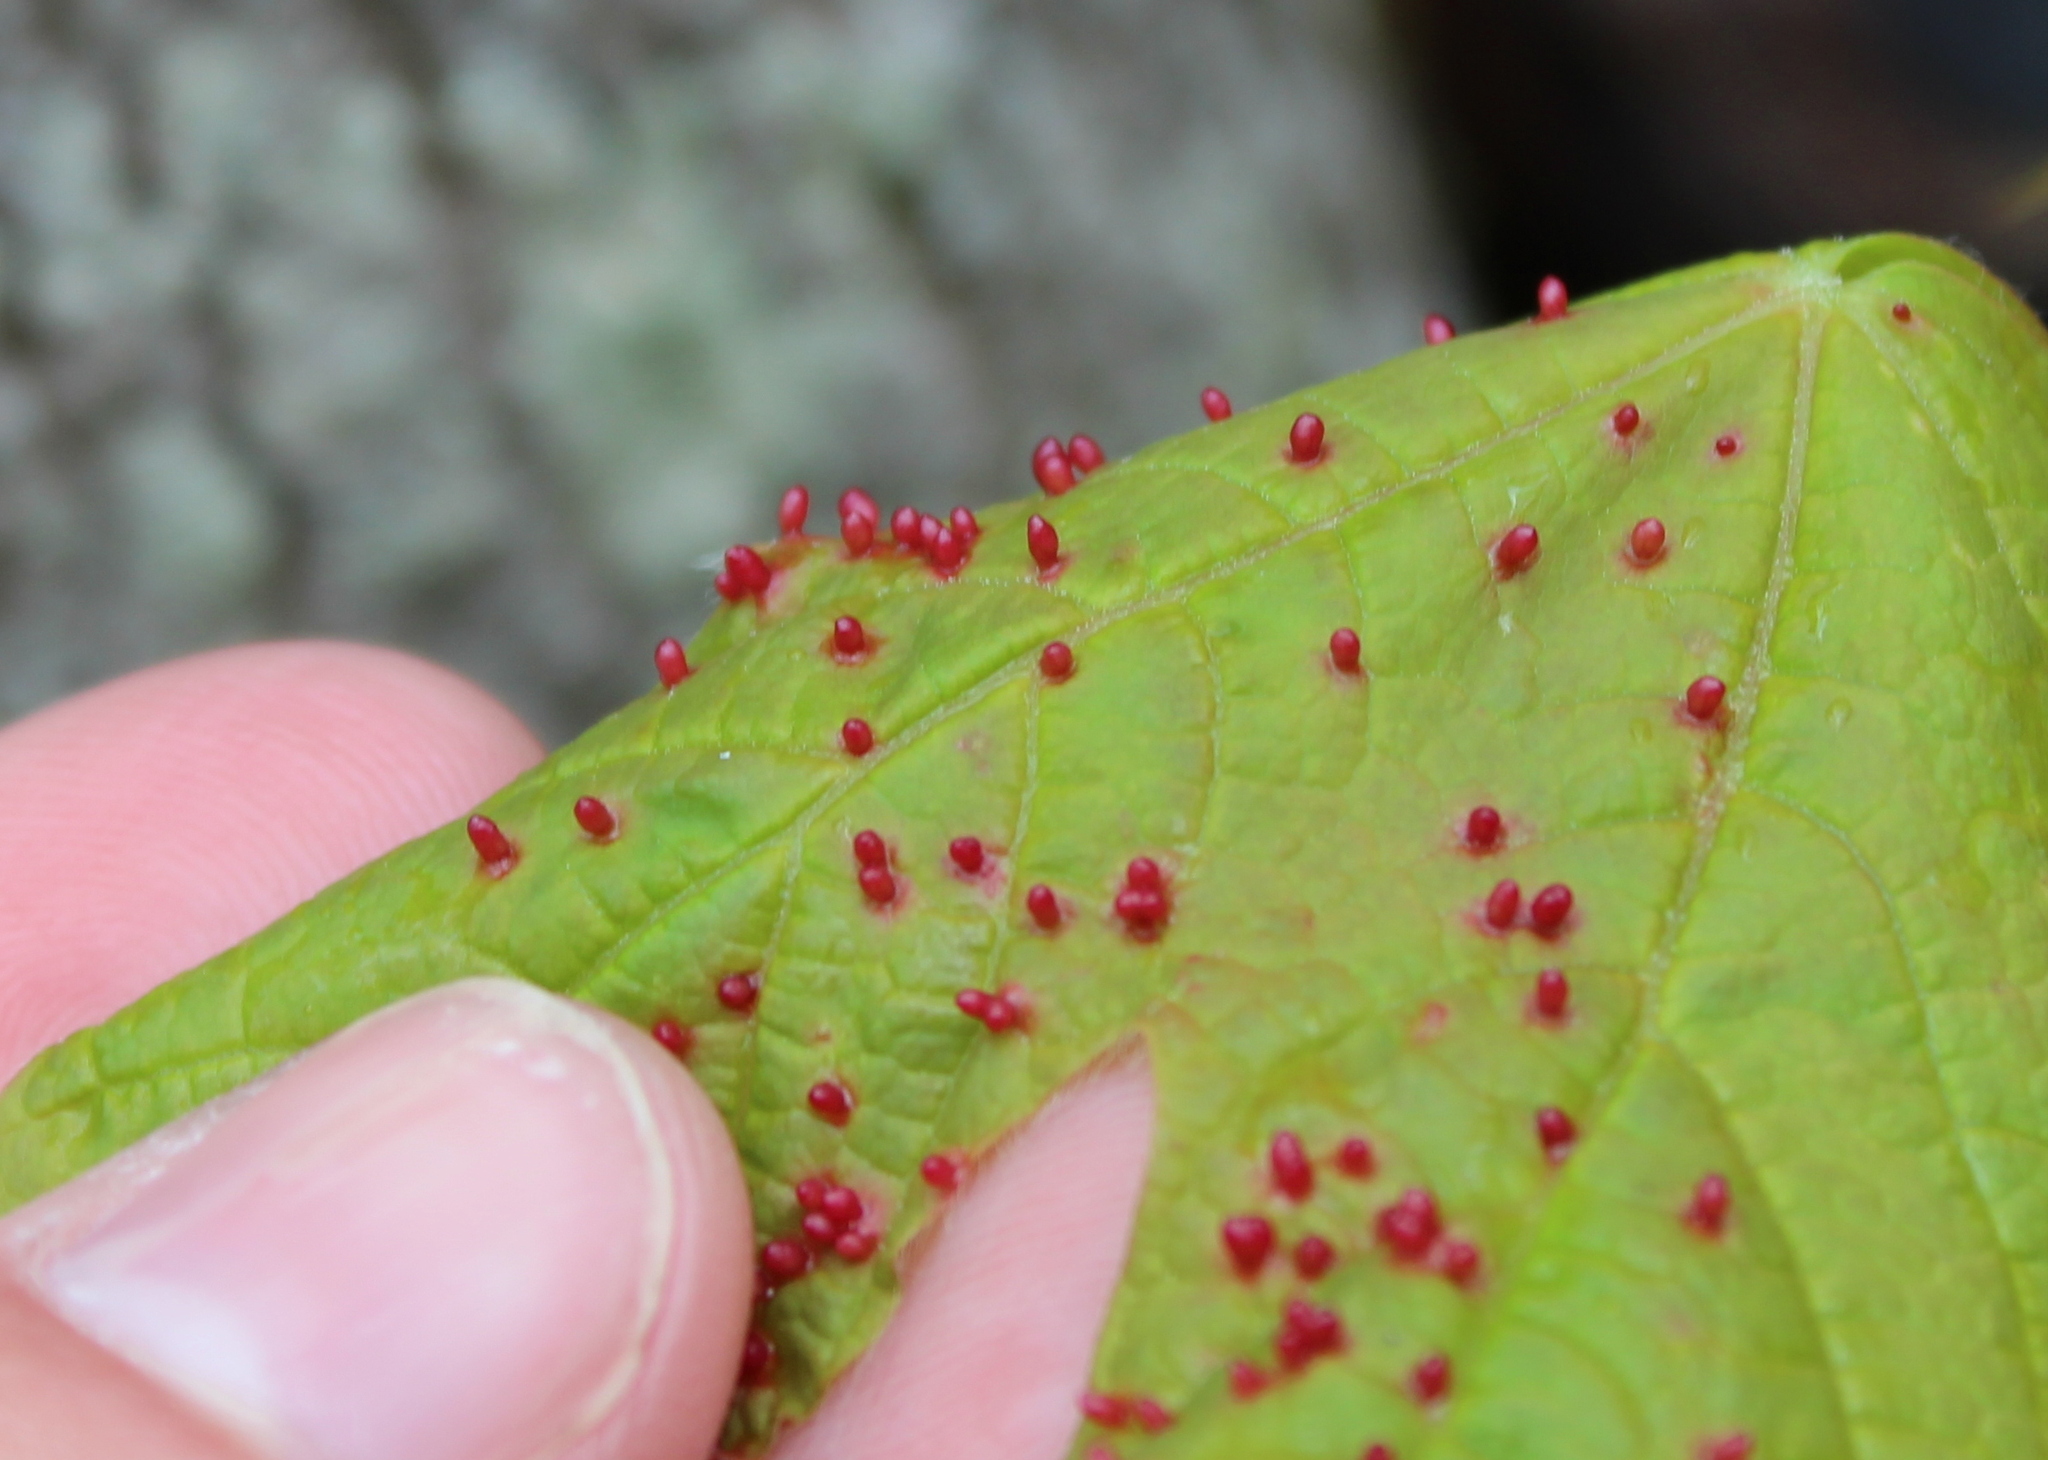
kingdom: Animalia
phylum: Arthropoda
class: Arachnida
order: Trombidiformes
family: Eriophyidae
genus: Vasates
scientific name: Vasates aceriscrumena
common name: Maple spindle gall mite
